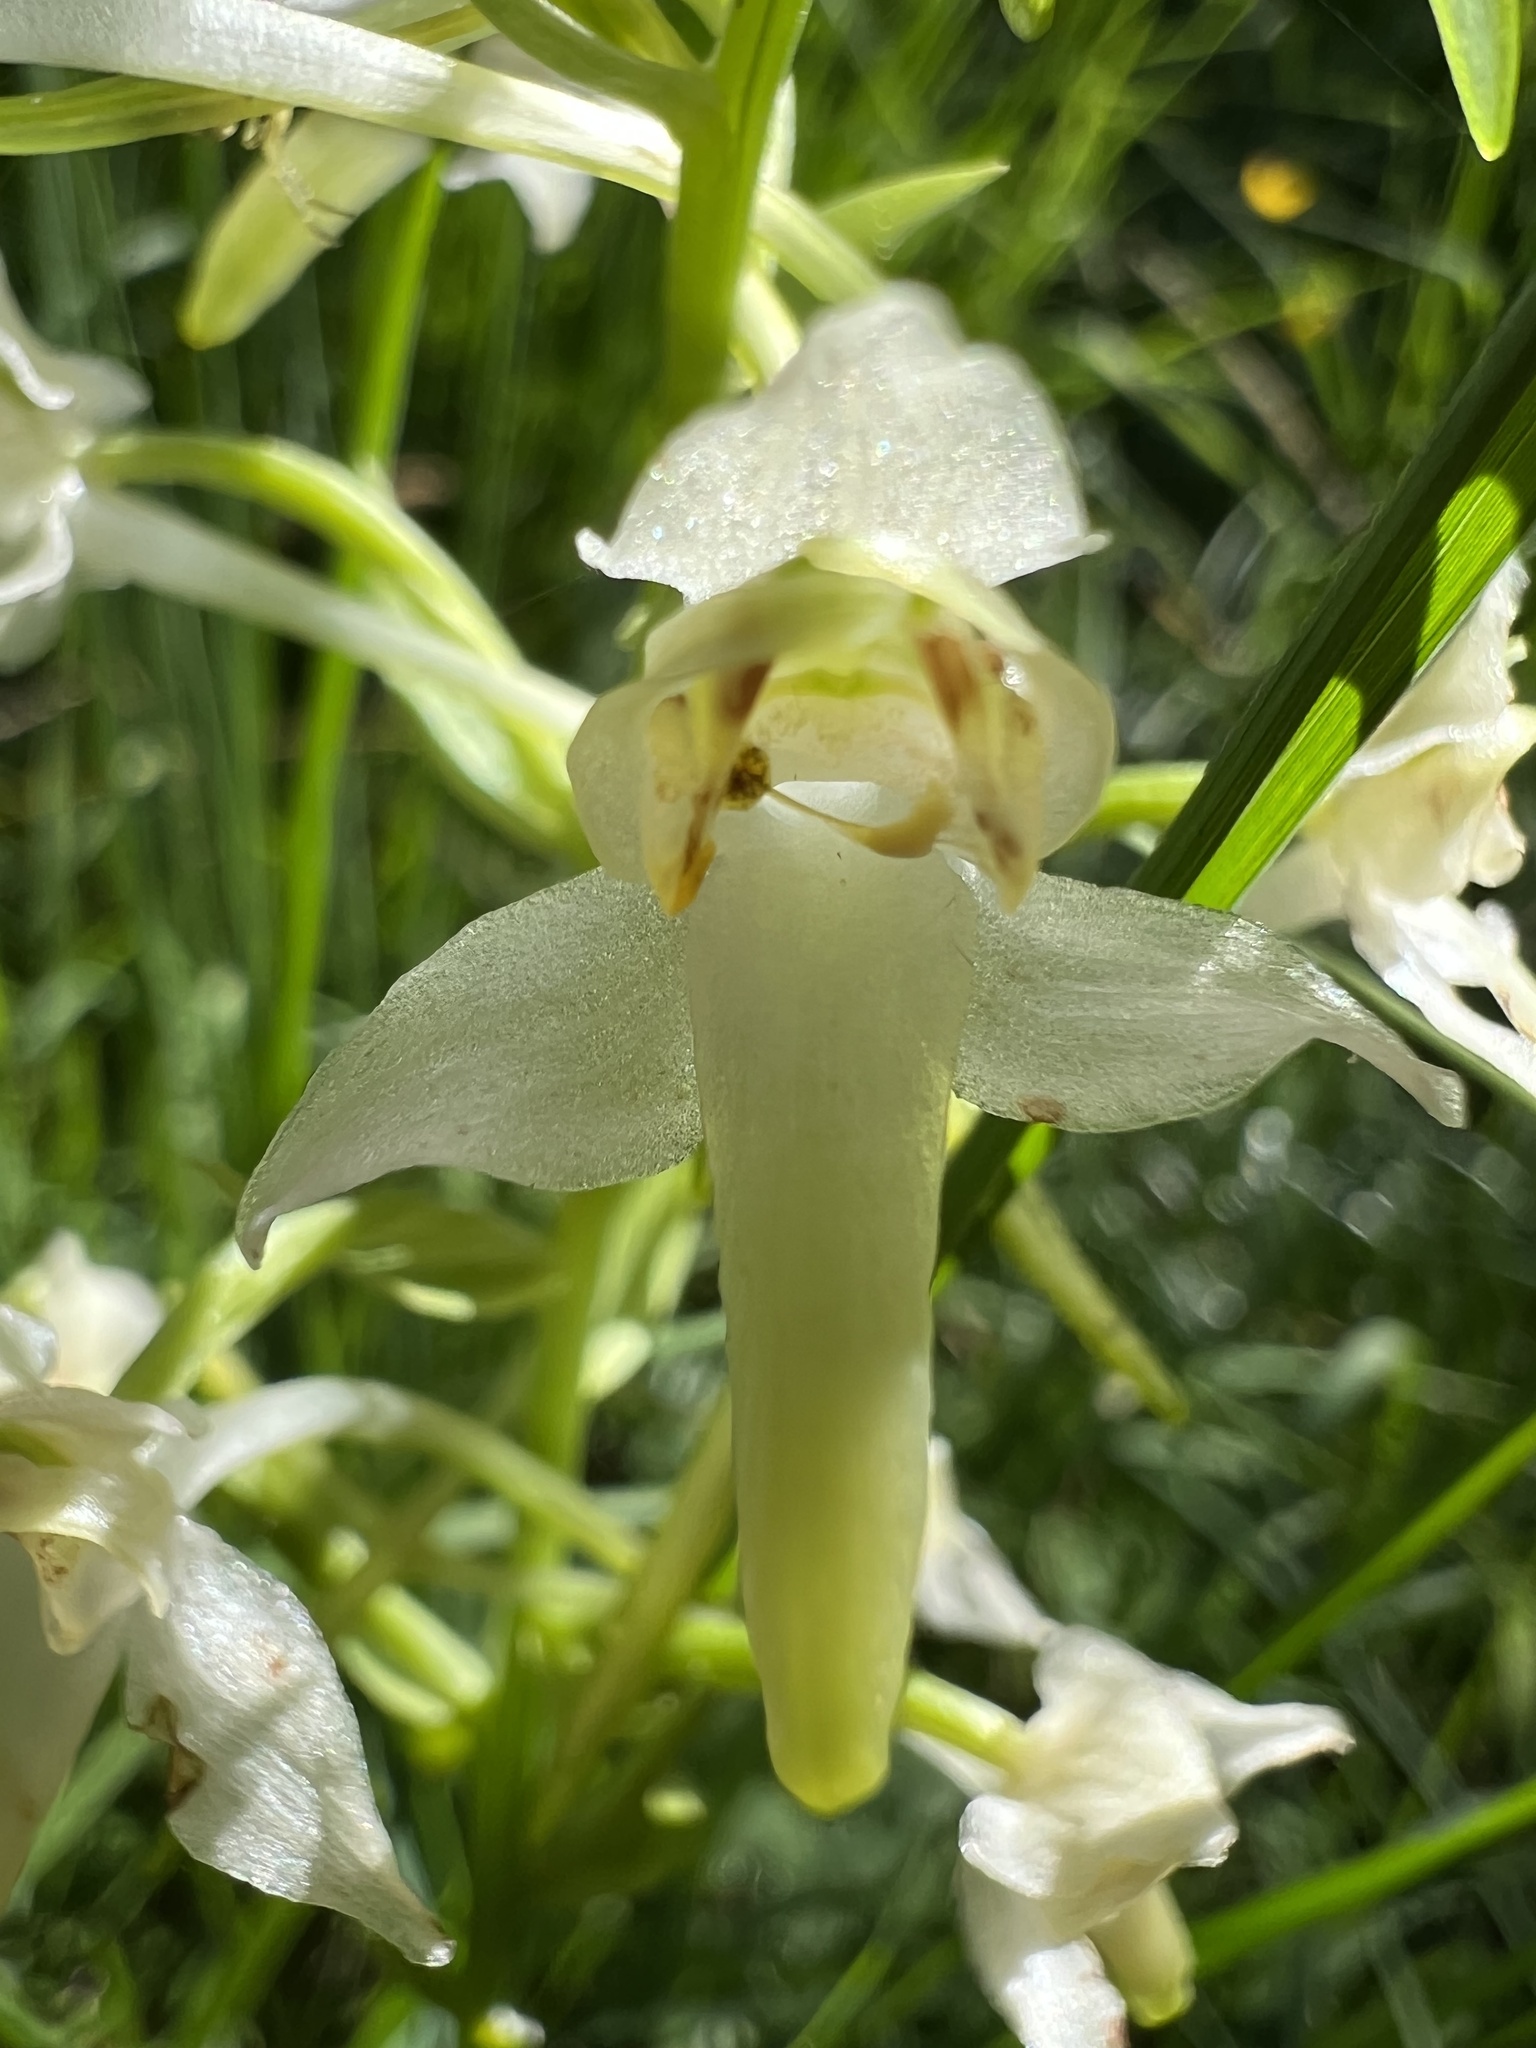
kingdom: Plantae
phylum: Tracheophyta
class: Liliopsida
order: Asparagales
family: Orchidaceae
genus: Platanthera
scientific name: Platanthera chlorantha
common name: Greater butterfly-orchid
